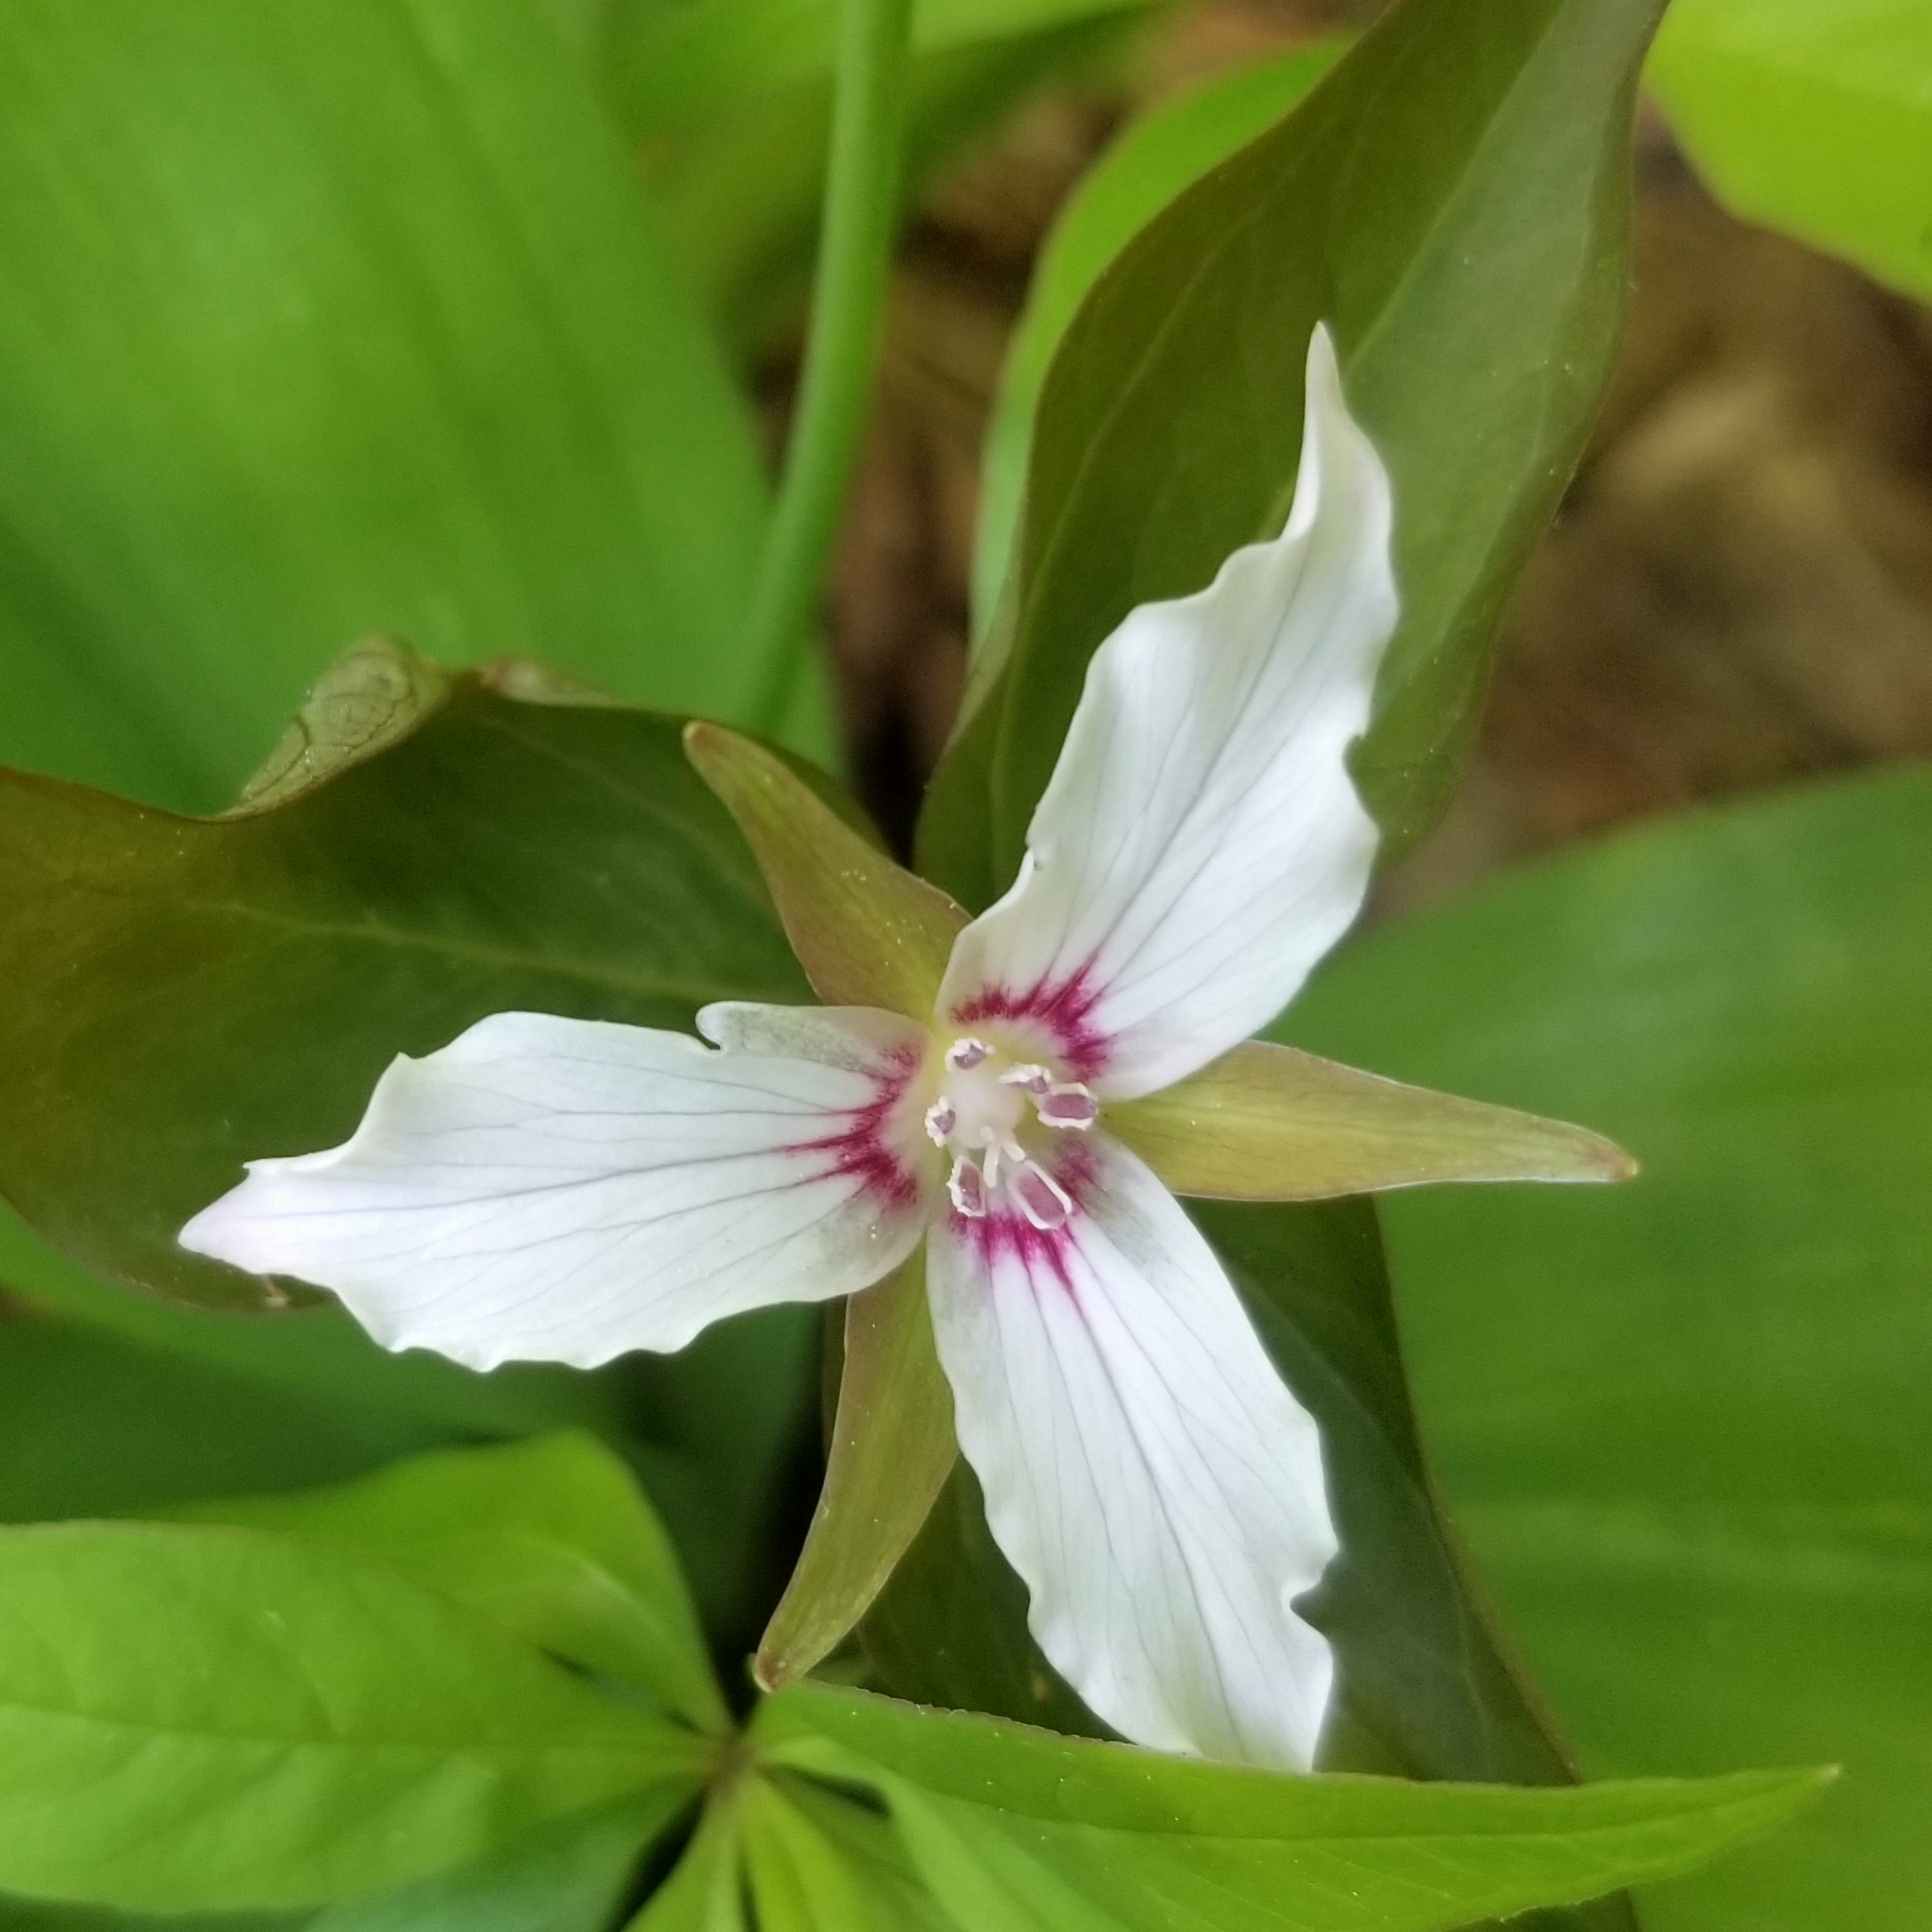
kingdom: Plantae
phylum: Tracheophyta
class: Liliopsida
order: Liliales
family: Melanthiaceae
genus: Trillium
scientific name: Trillium undulatum
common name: Paint trillium
